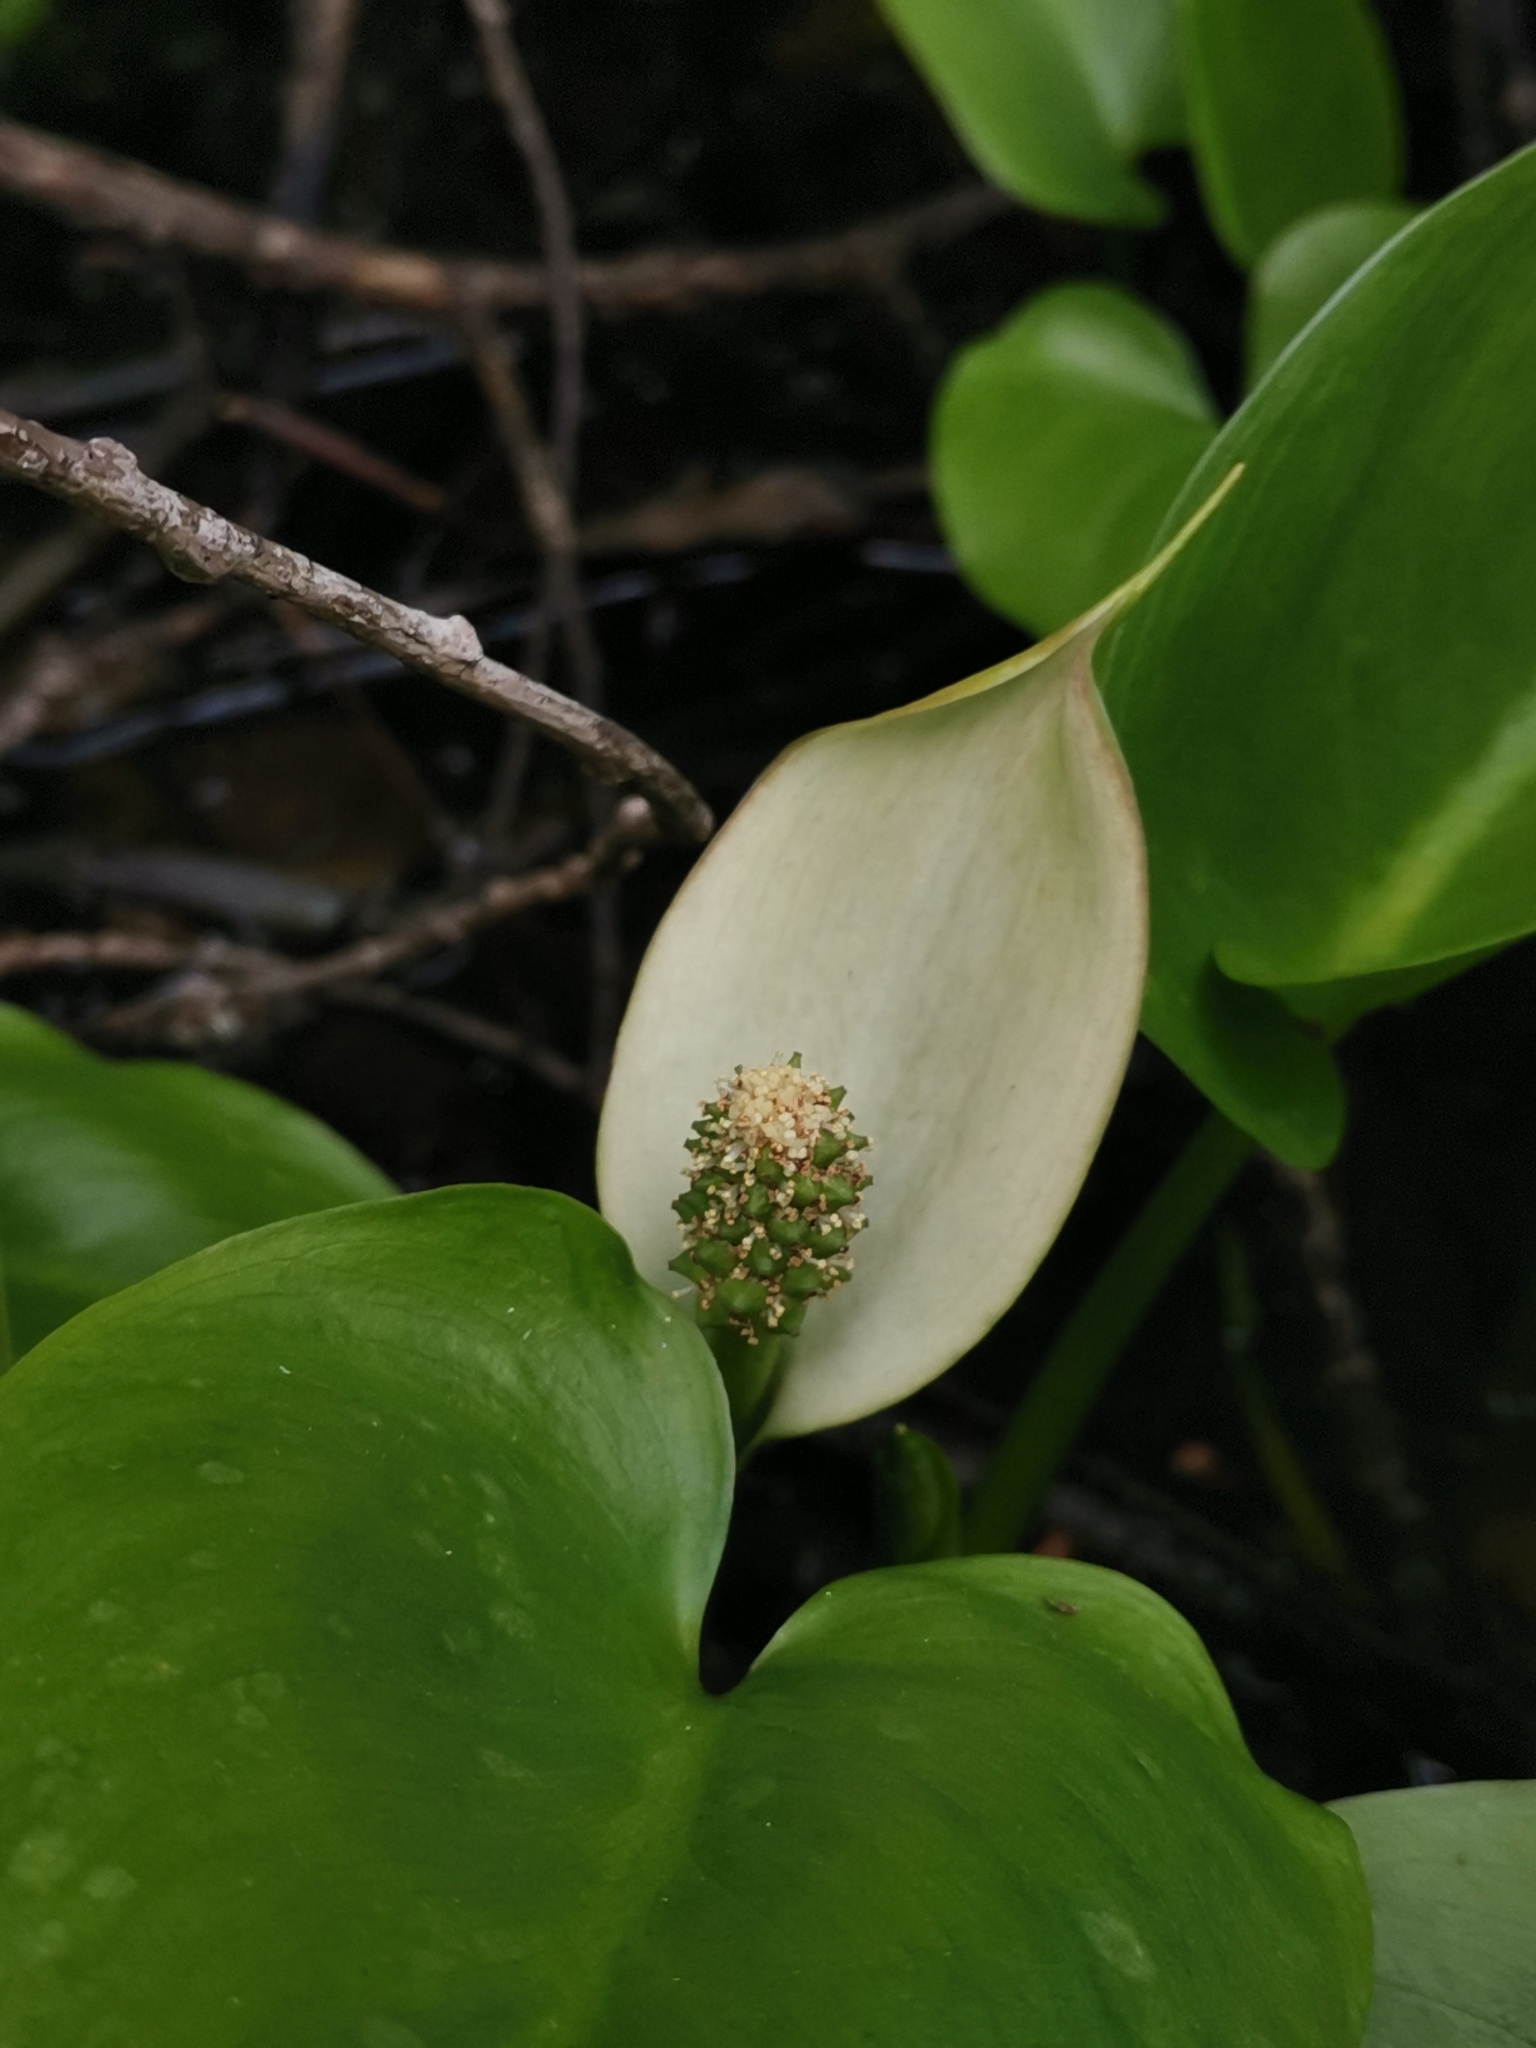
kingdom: Plantae
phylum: Tracheophyta
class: Liliopsida
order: Alismatales
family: Araceae
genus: Calla
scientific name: Calla palustris
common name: Bog arum
